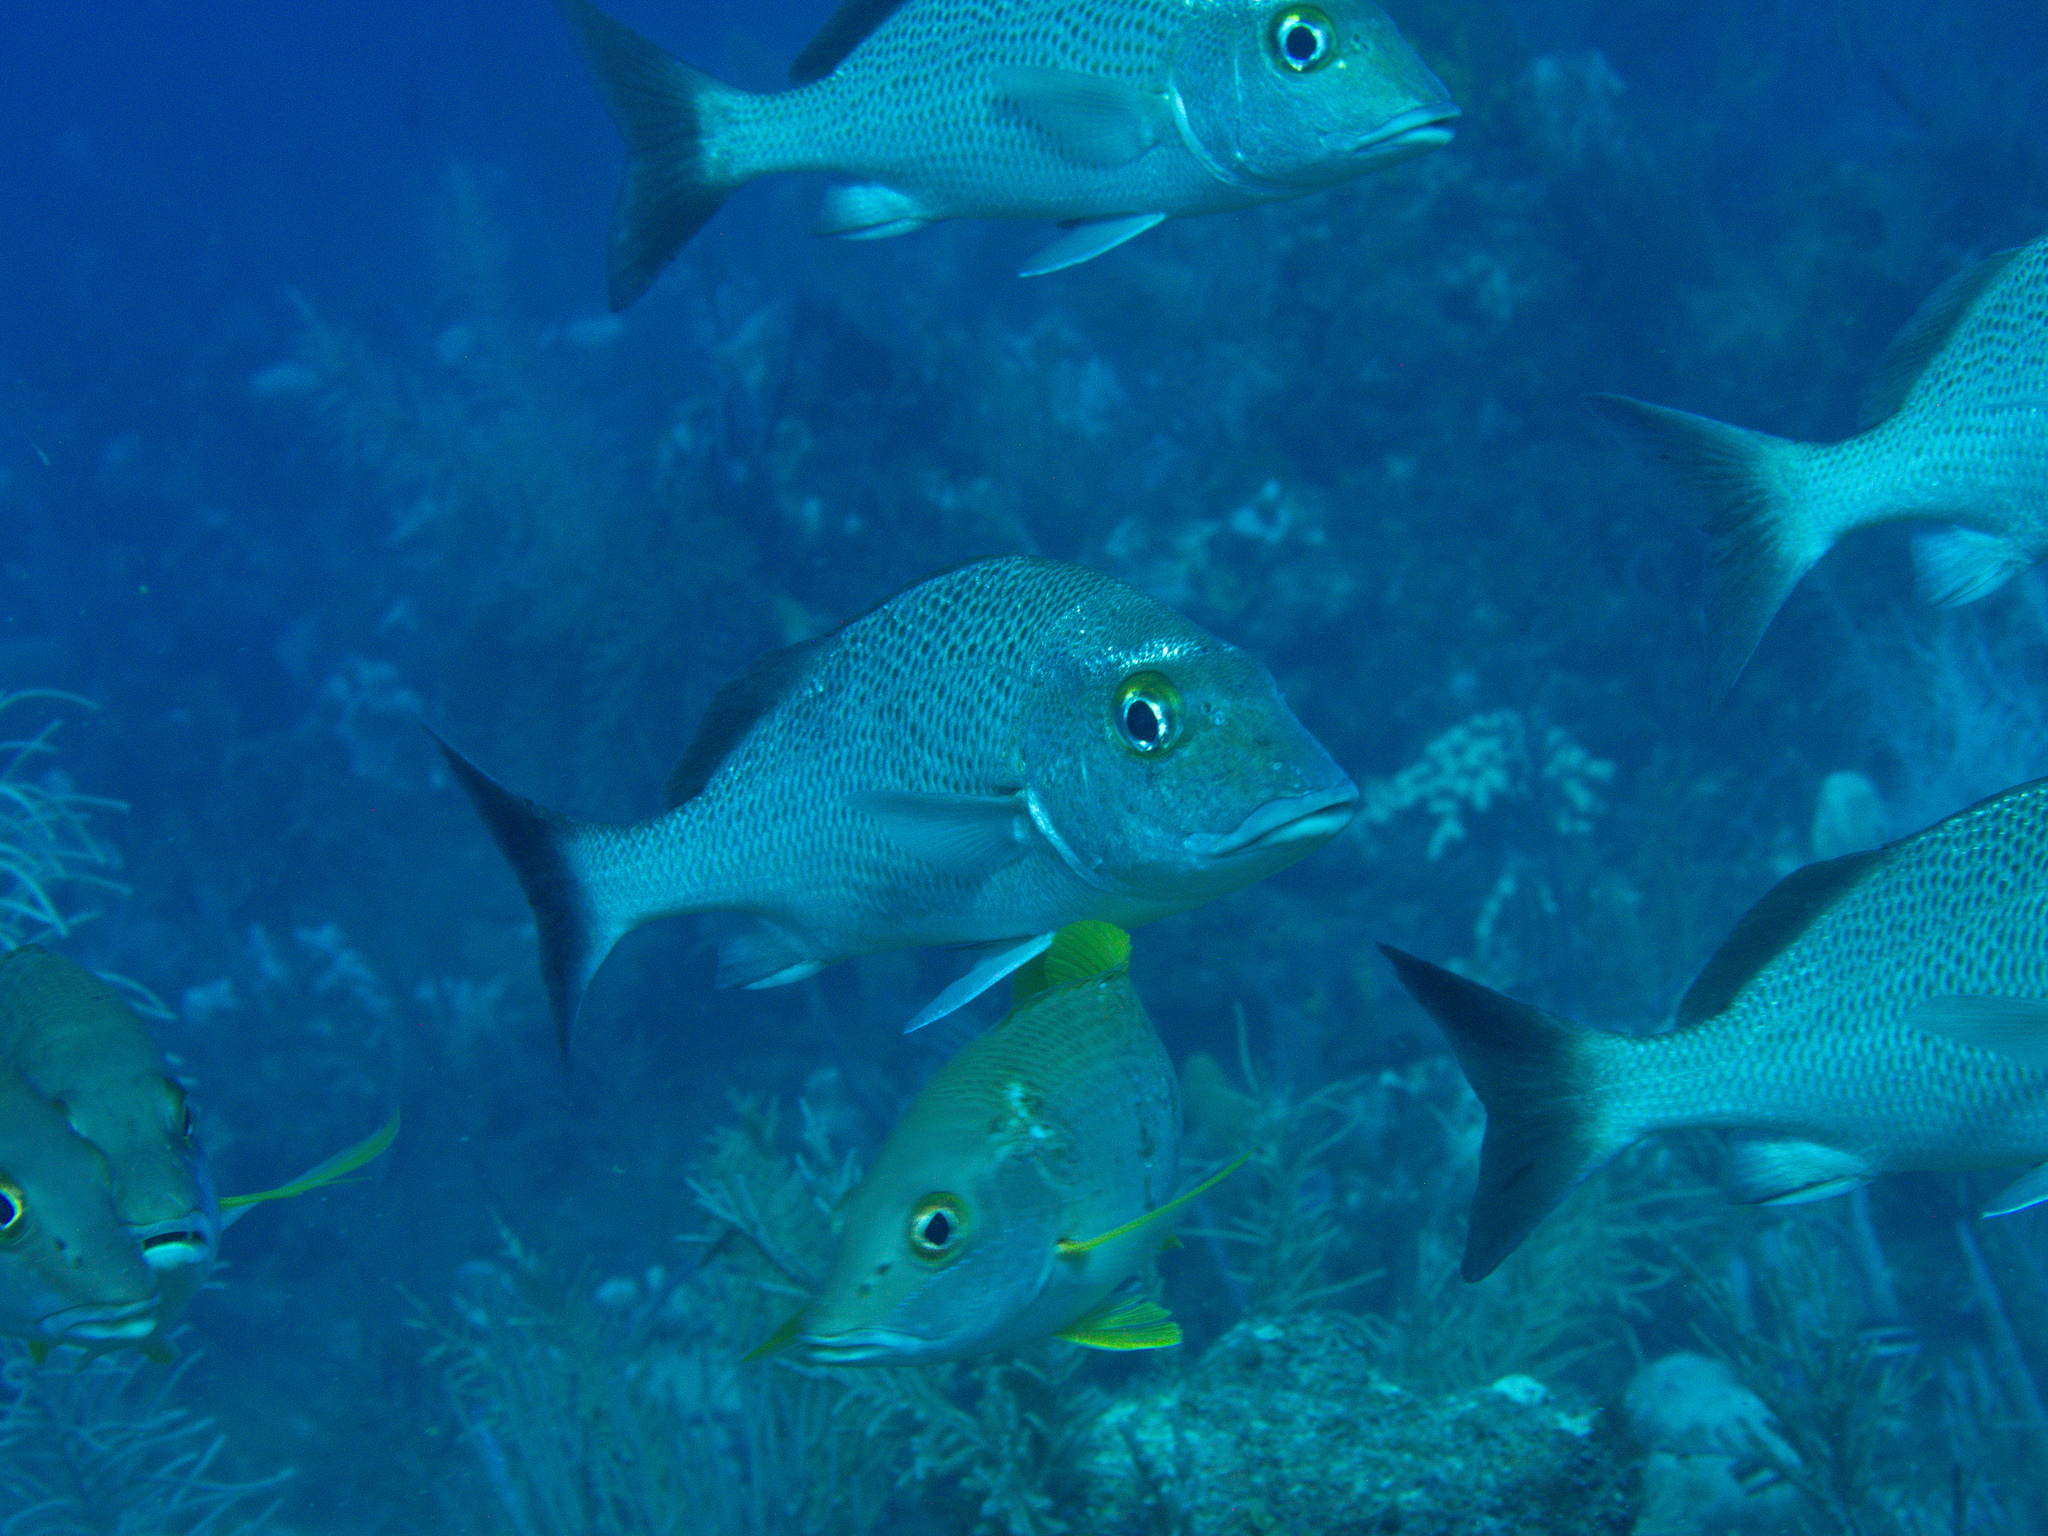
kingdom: Animalia
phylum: Chordata
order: Perciformes
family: Haemulidae
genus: Haemulon
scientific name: Haemulon parra
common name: Sailor's choice
